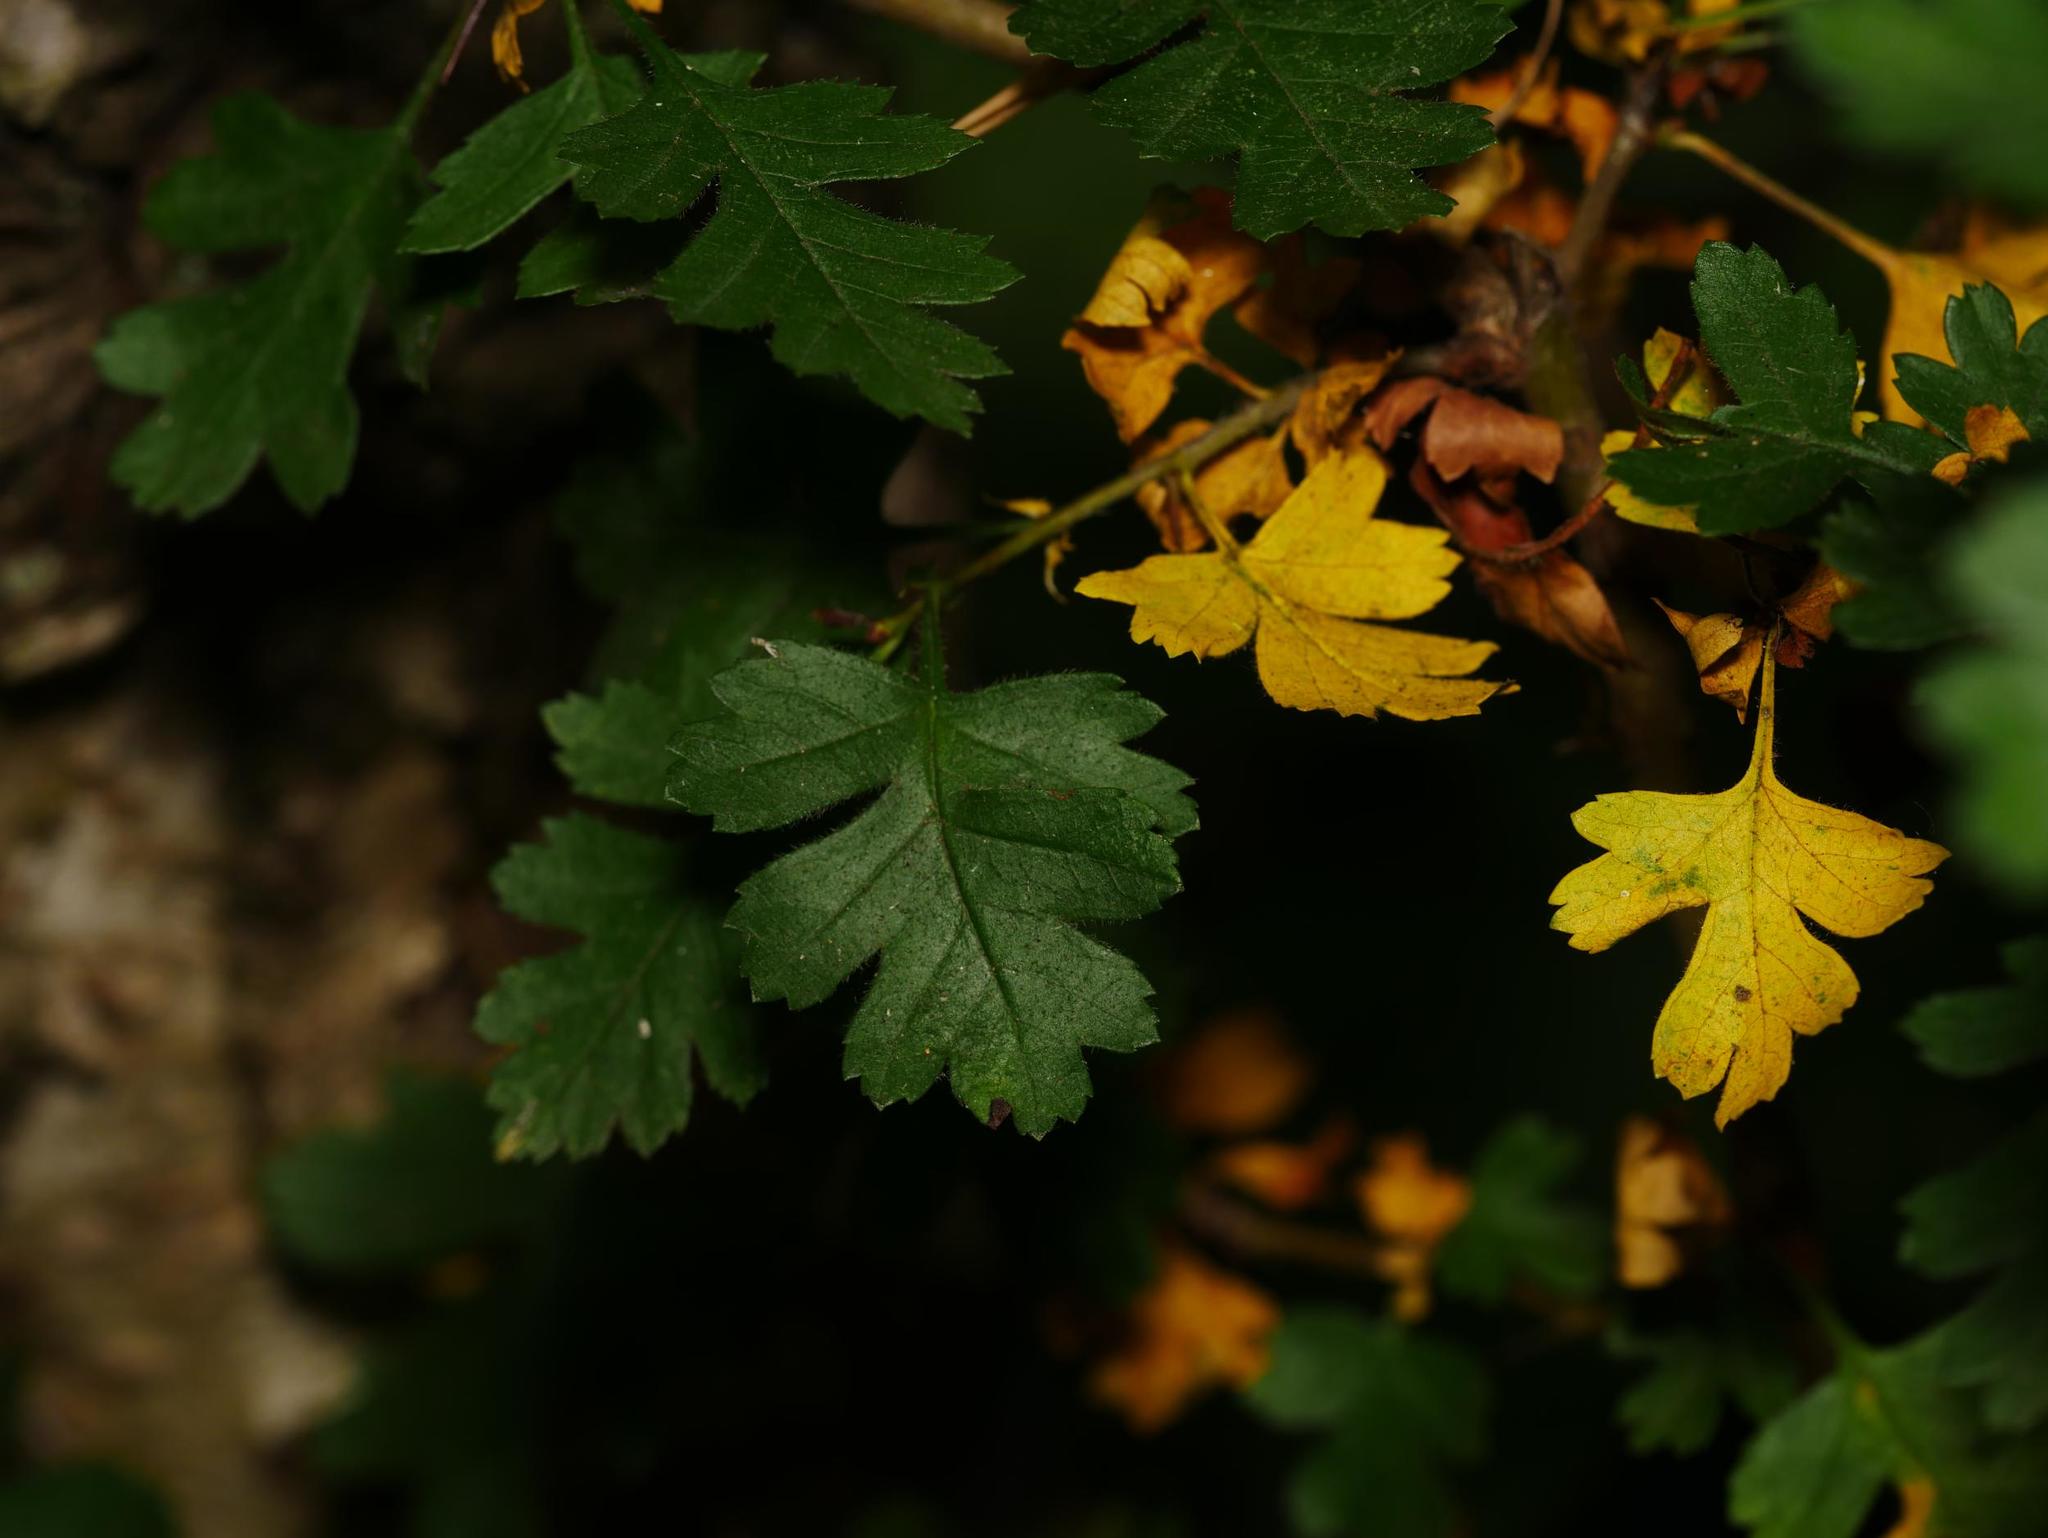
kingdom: Plantae
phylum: Tracheophyta
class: Magnoliopsida
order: Rosales
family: Rosaceae
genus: Crataegus
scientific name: Crataegus monogyna
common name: Hawthorn
